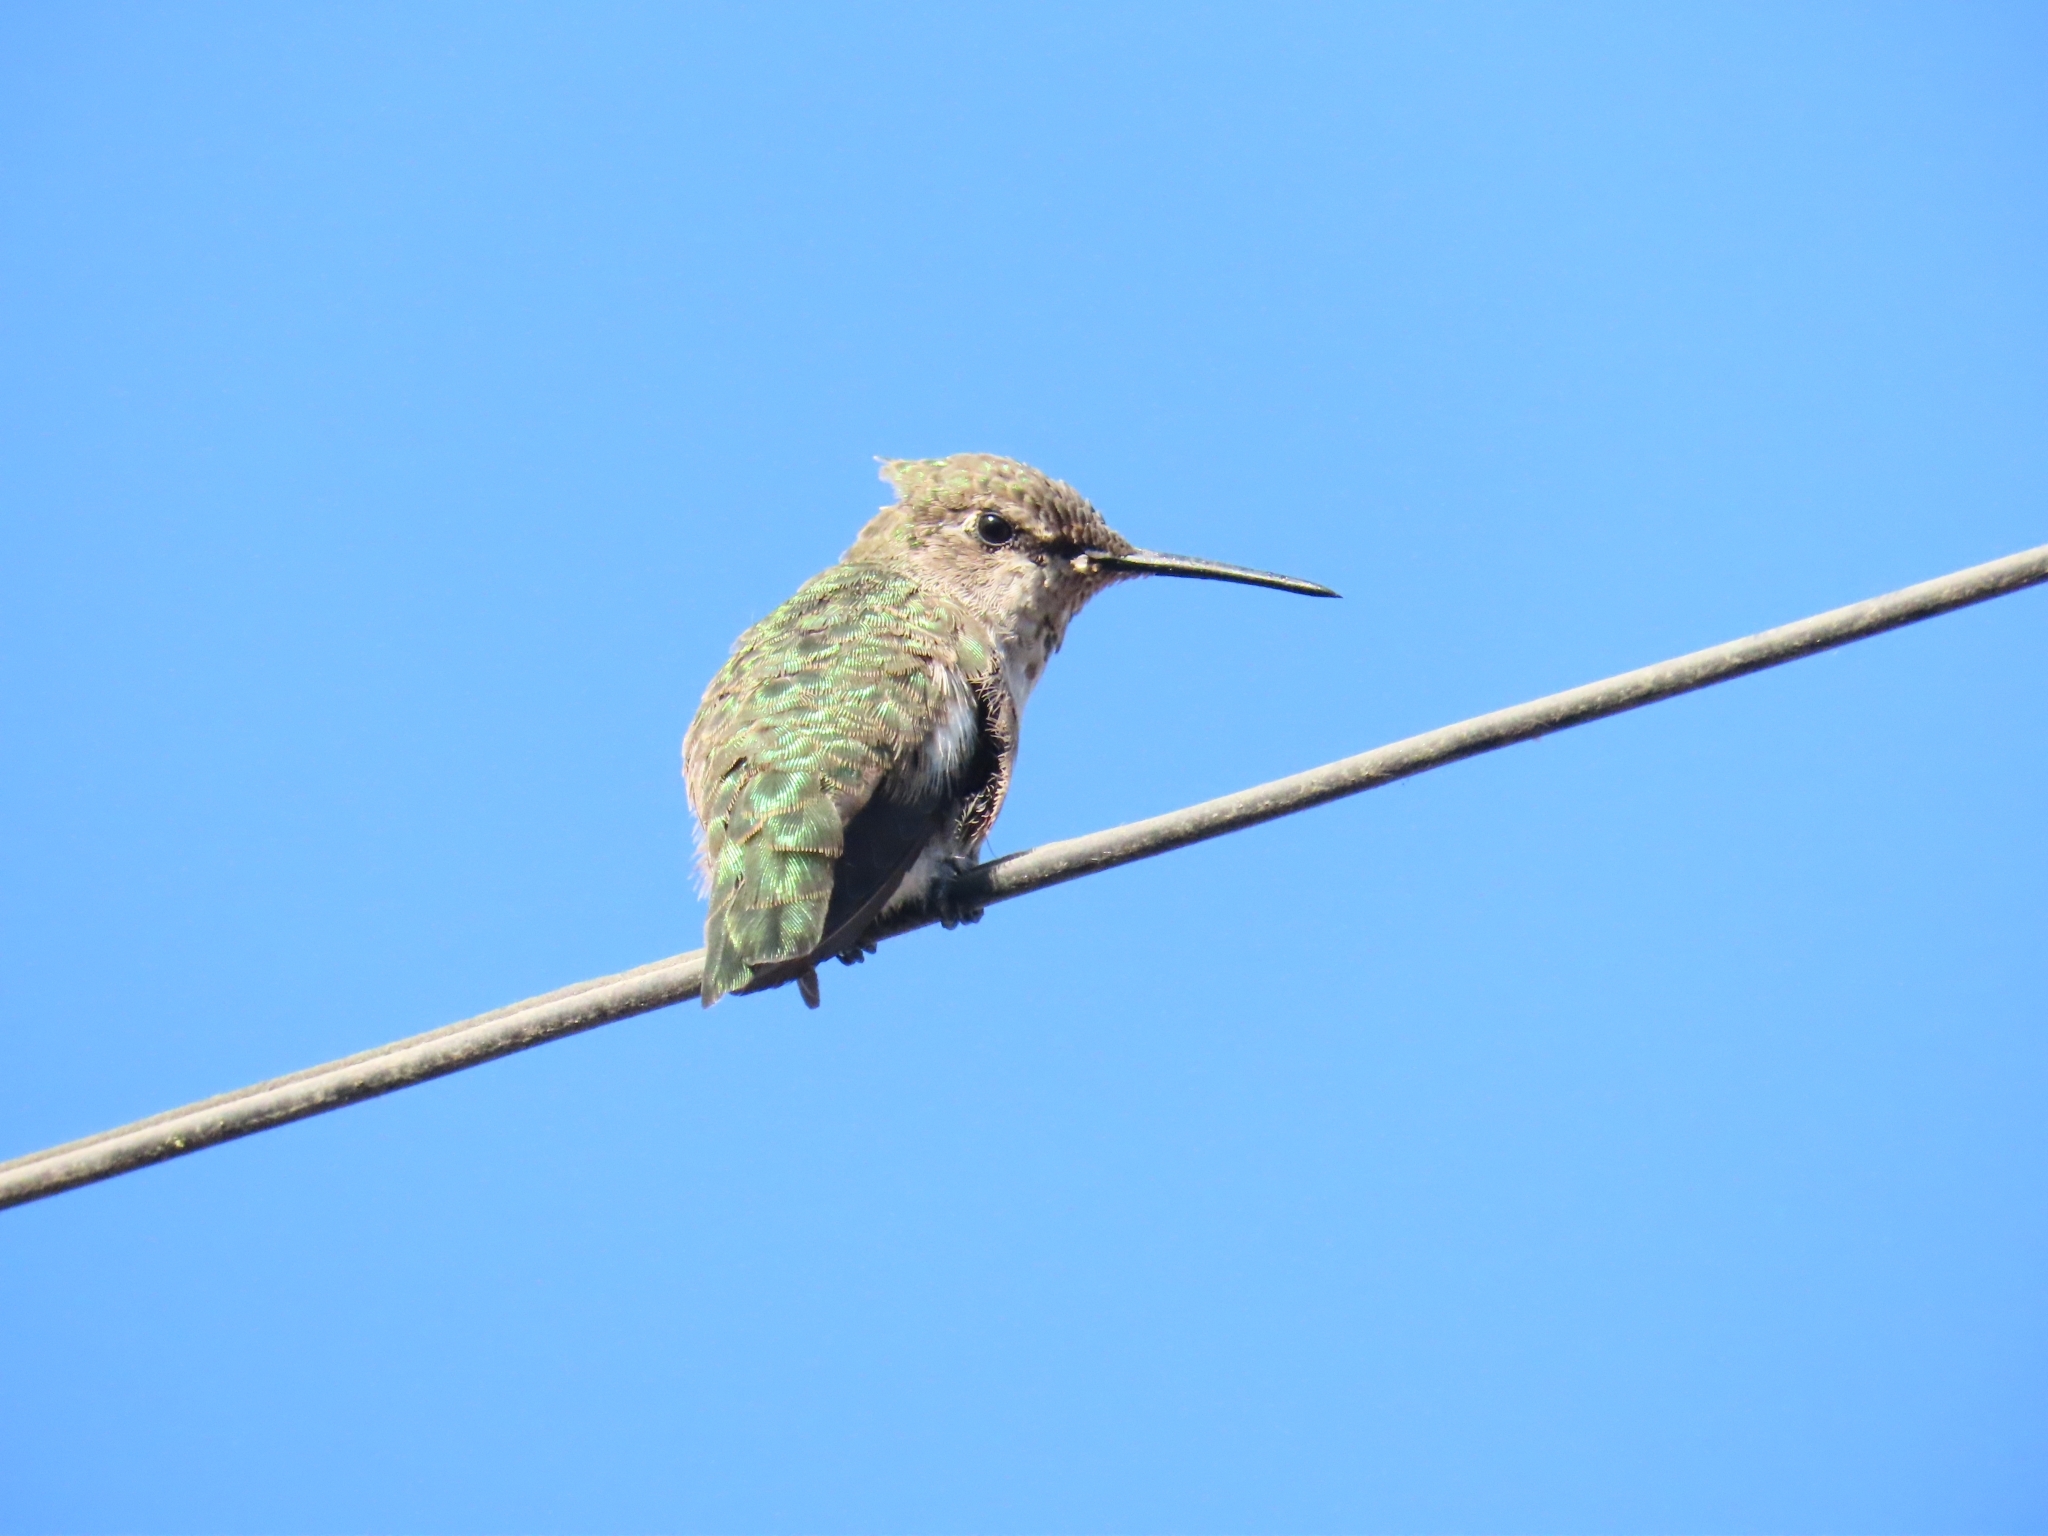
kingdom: Animalia
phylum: Chordata
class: Aves
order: Apodiformes
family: Trochilidae
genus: Calypte
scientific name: Calypte anna
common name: Anna's hummingbird
